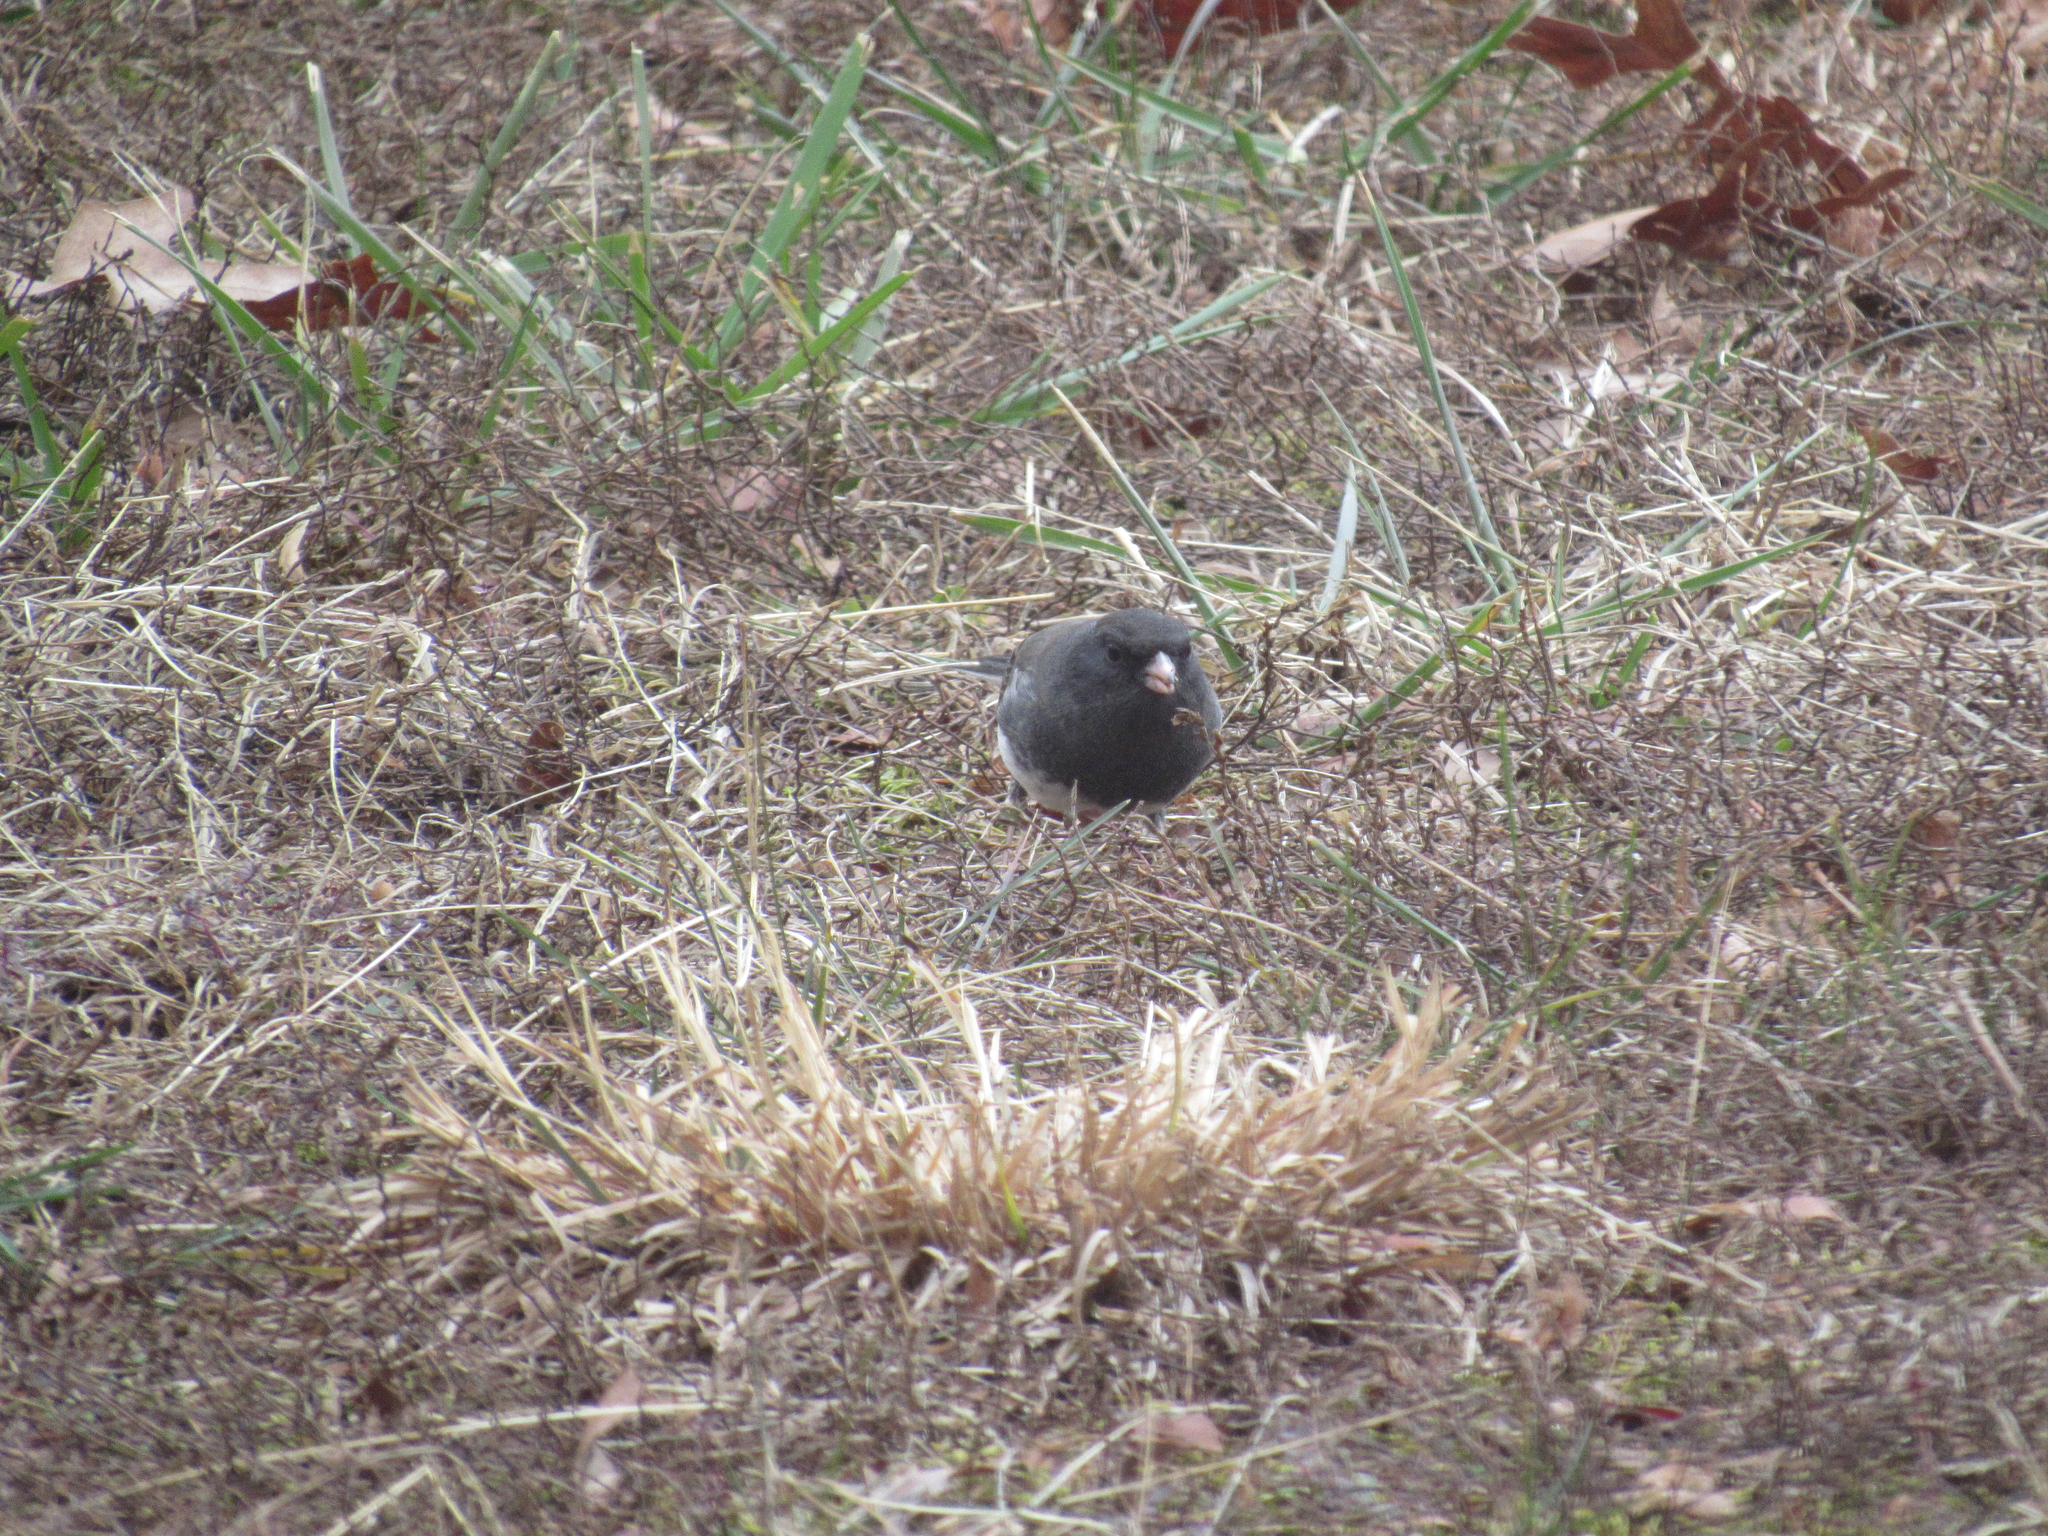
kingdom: Animalia
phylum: Chordata
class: Aves
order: Passeriformes
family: Passerellidae
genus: Junco
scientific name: Junco hyemalis
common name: Dark-eyed junco
